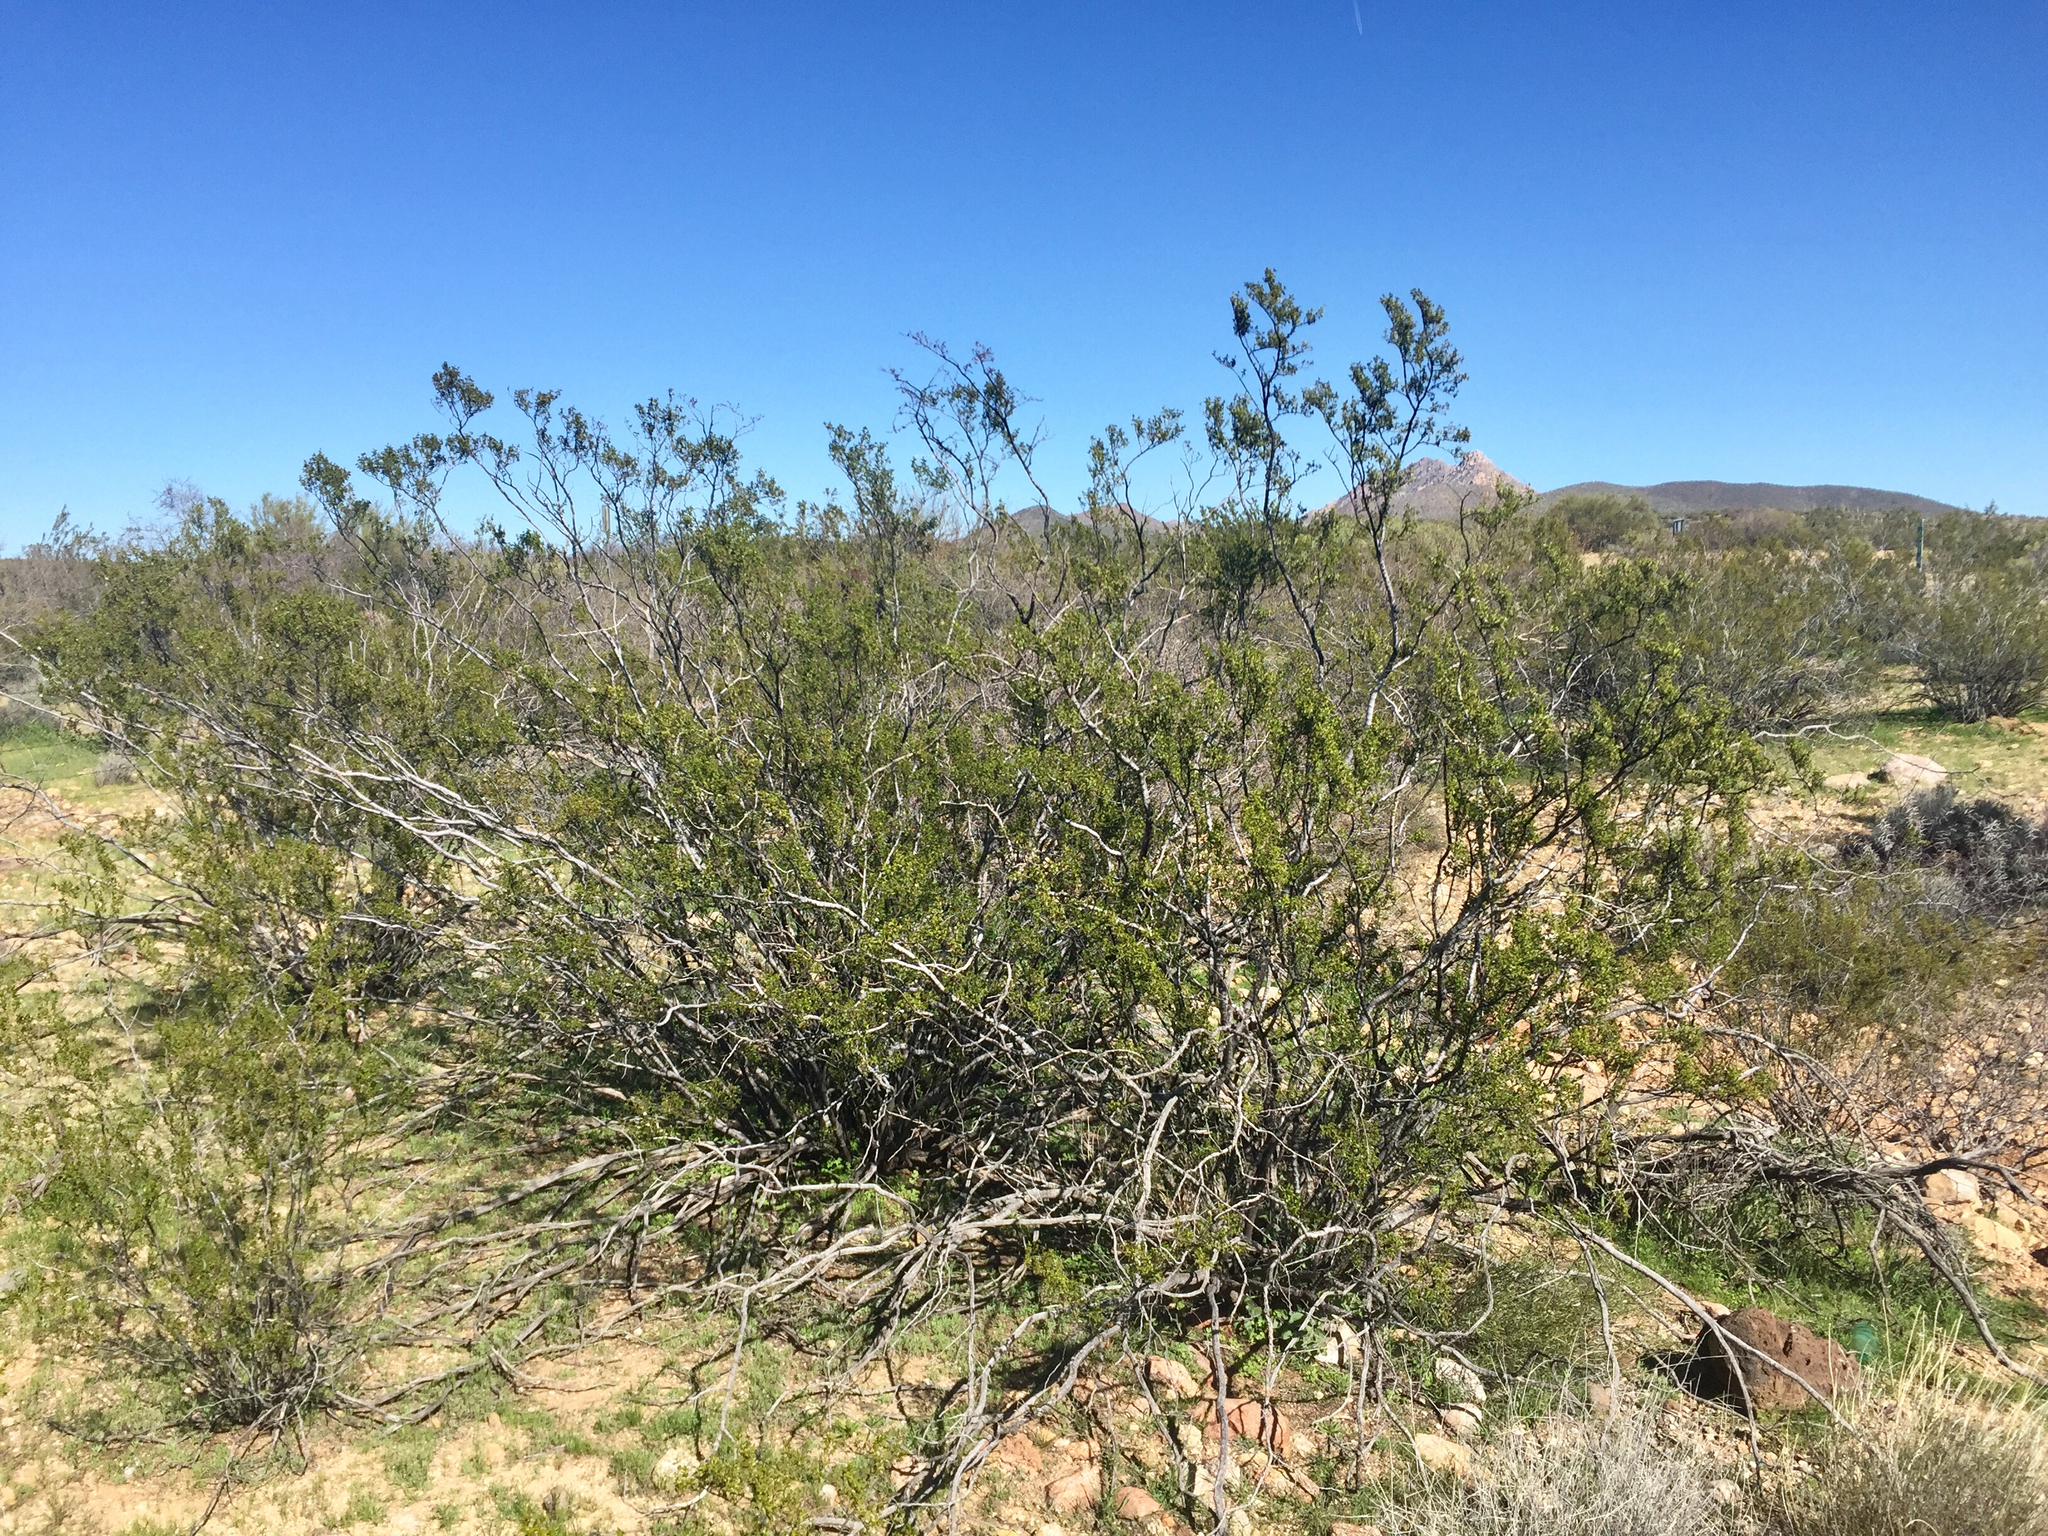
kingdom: Plantae
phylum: Tracheophyta
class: Magnoliopsida
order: Zygophyllales
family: Zygophyllaceae
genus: Larrea
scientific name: Larrea tridentata
